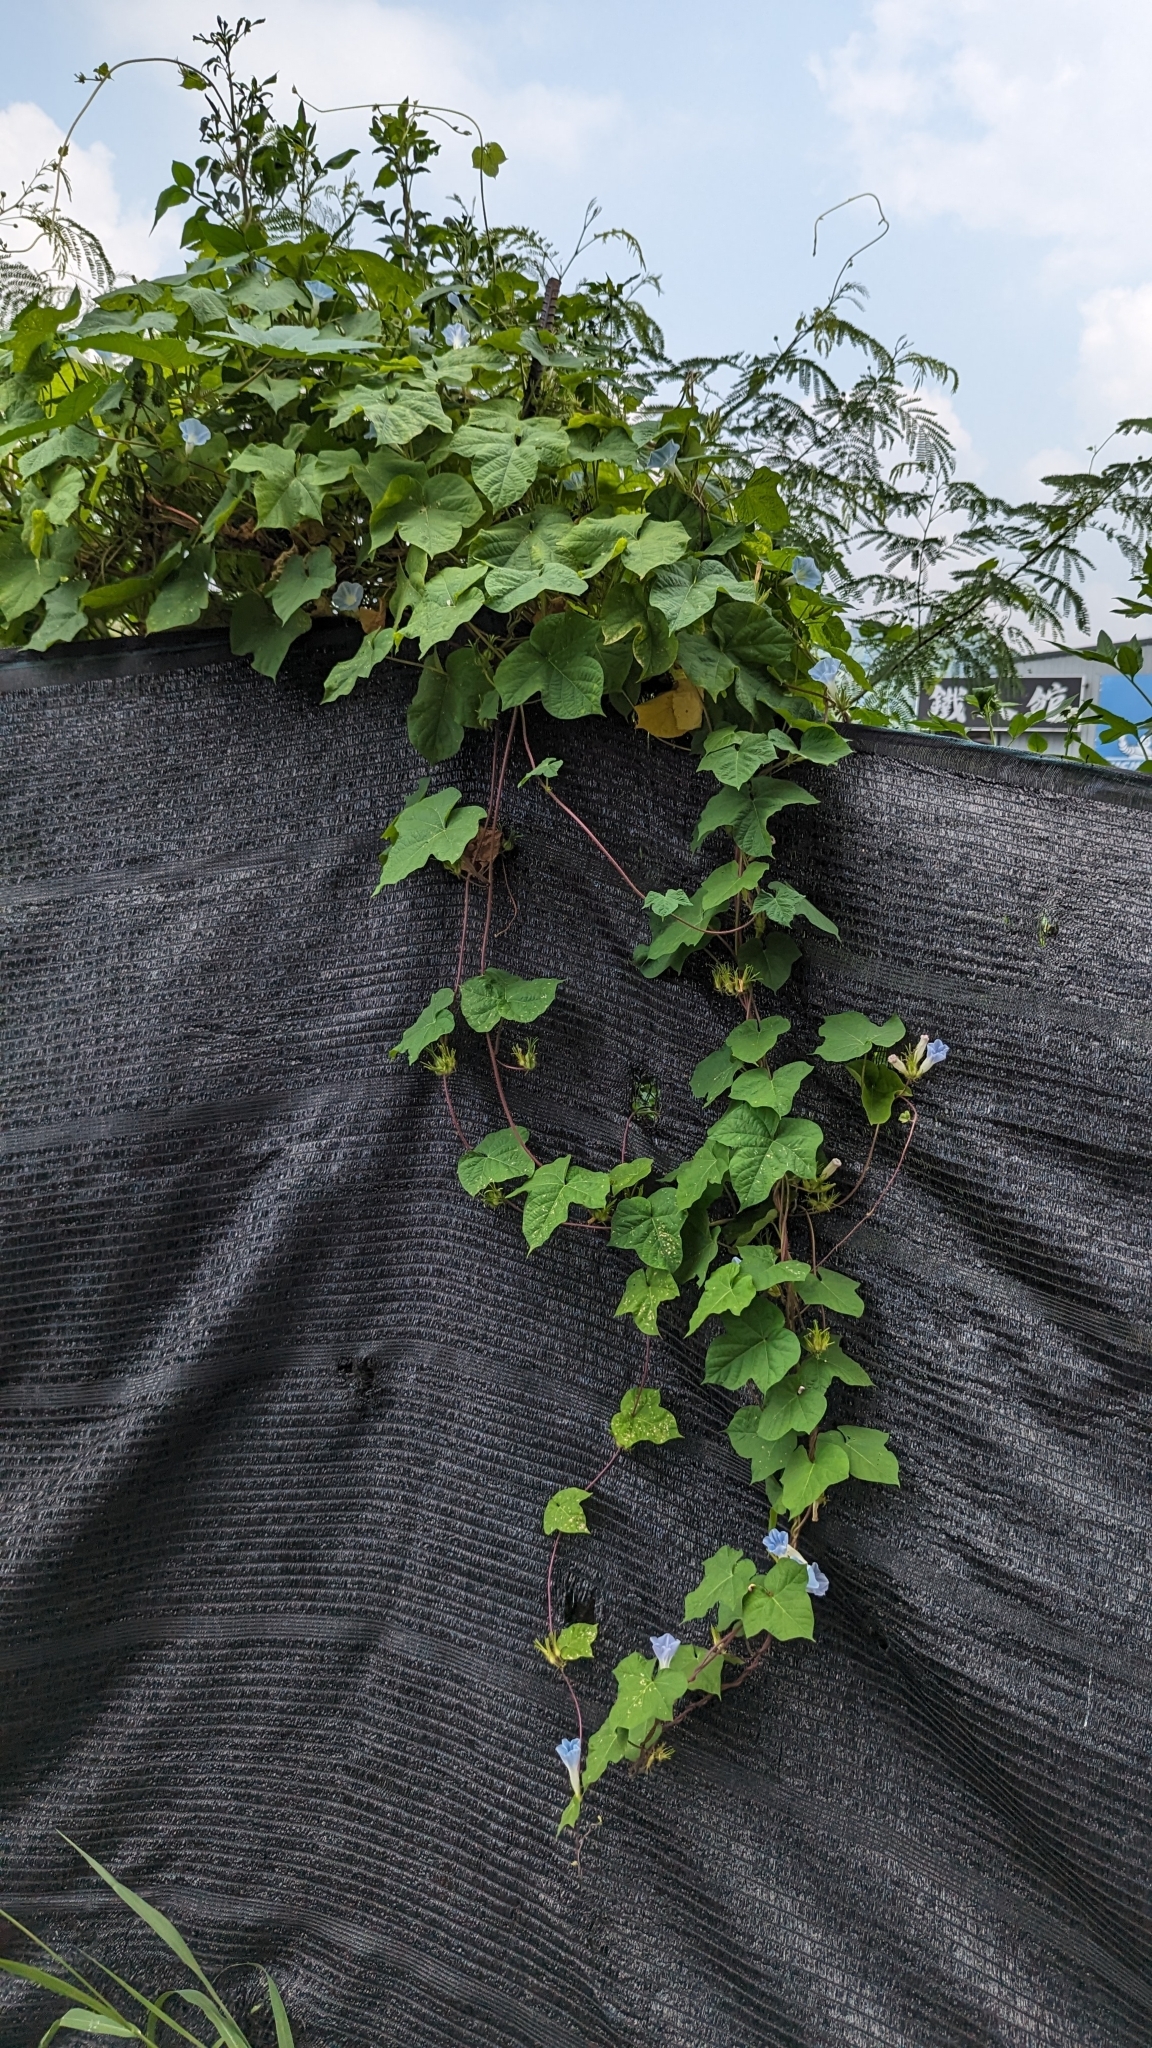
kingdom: Plantae
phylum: Tracheophyta
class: Magnoliopsida
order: Solanales
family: Convolvulaceae
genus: Ipomoea
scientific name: Ipomoea nil
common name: Japanese morning-glory
